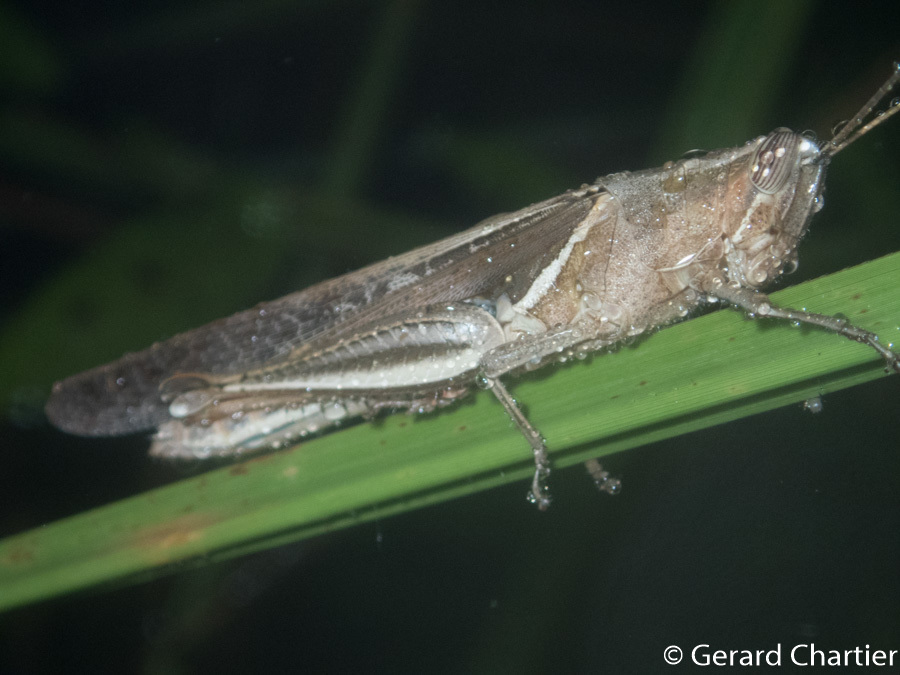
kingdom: Animalia
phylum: Arthropoda
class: Insecta
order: Orthoptera
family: Acrididae
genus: Stenocatantops
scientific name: Stenocatantops splendens
